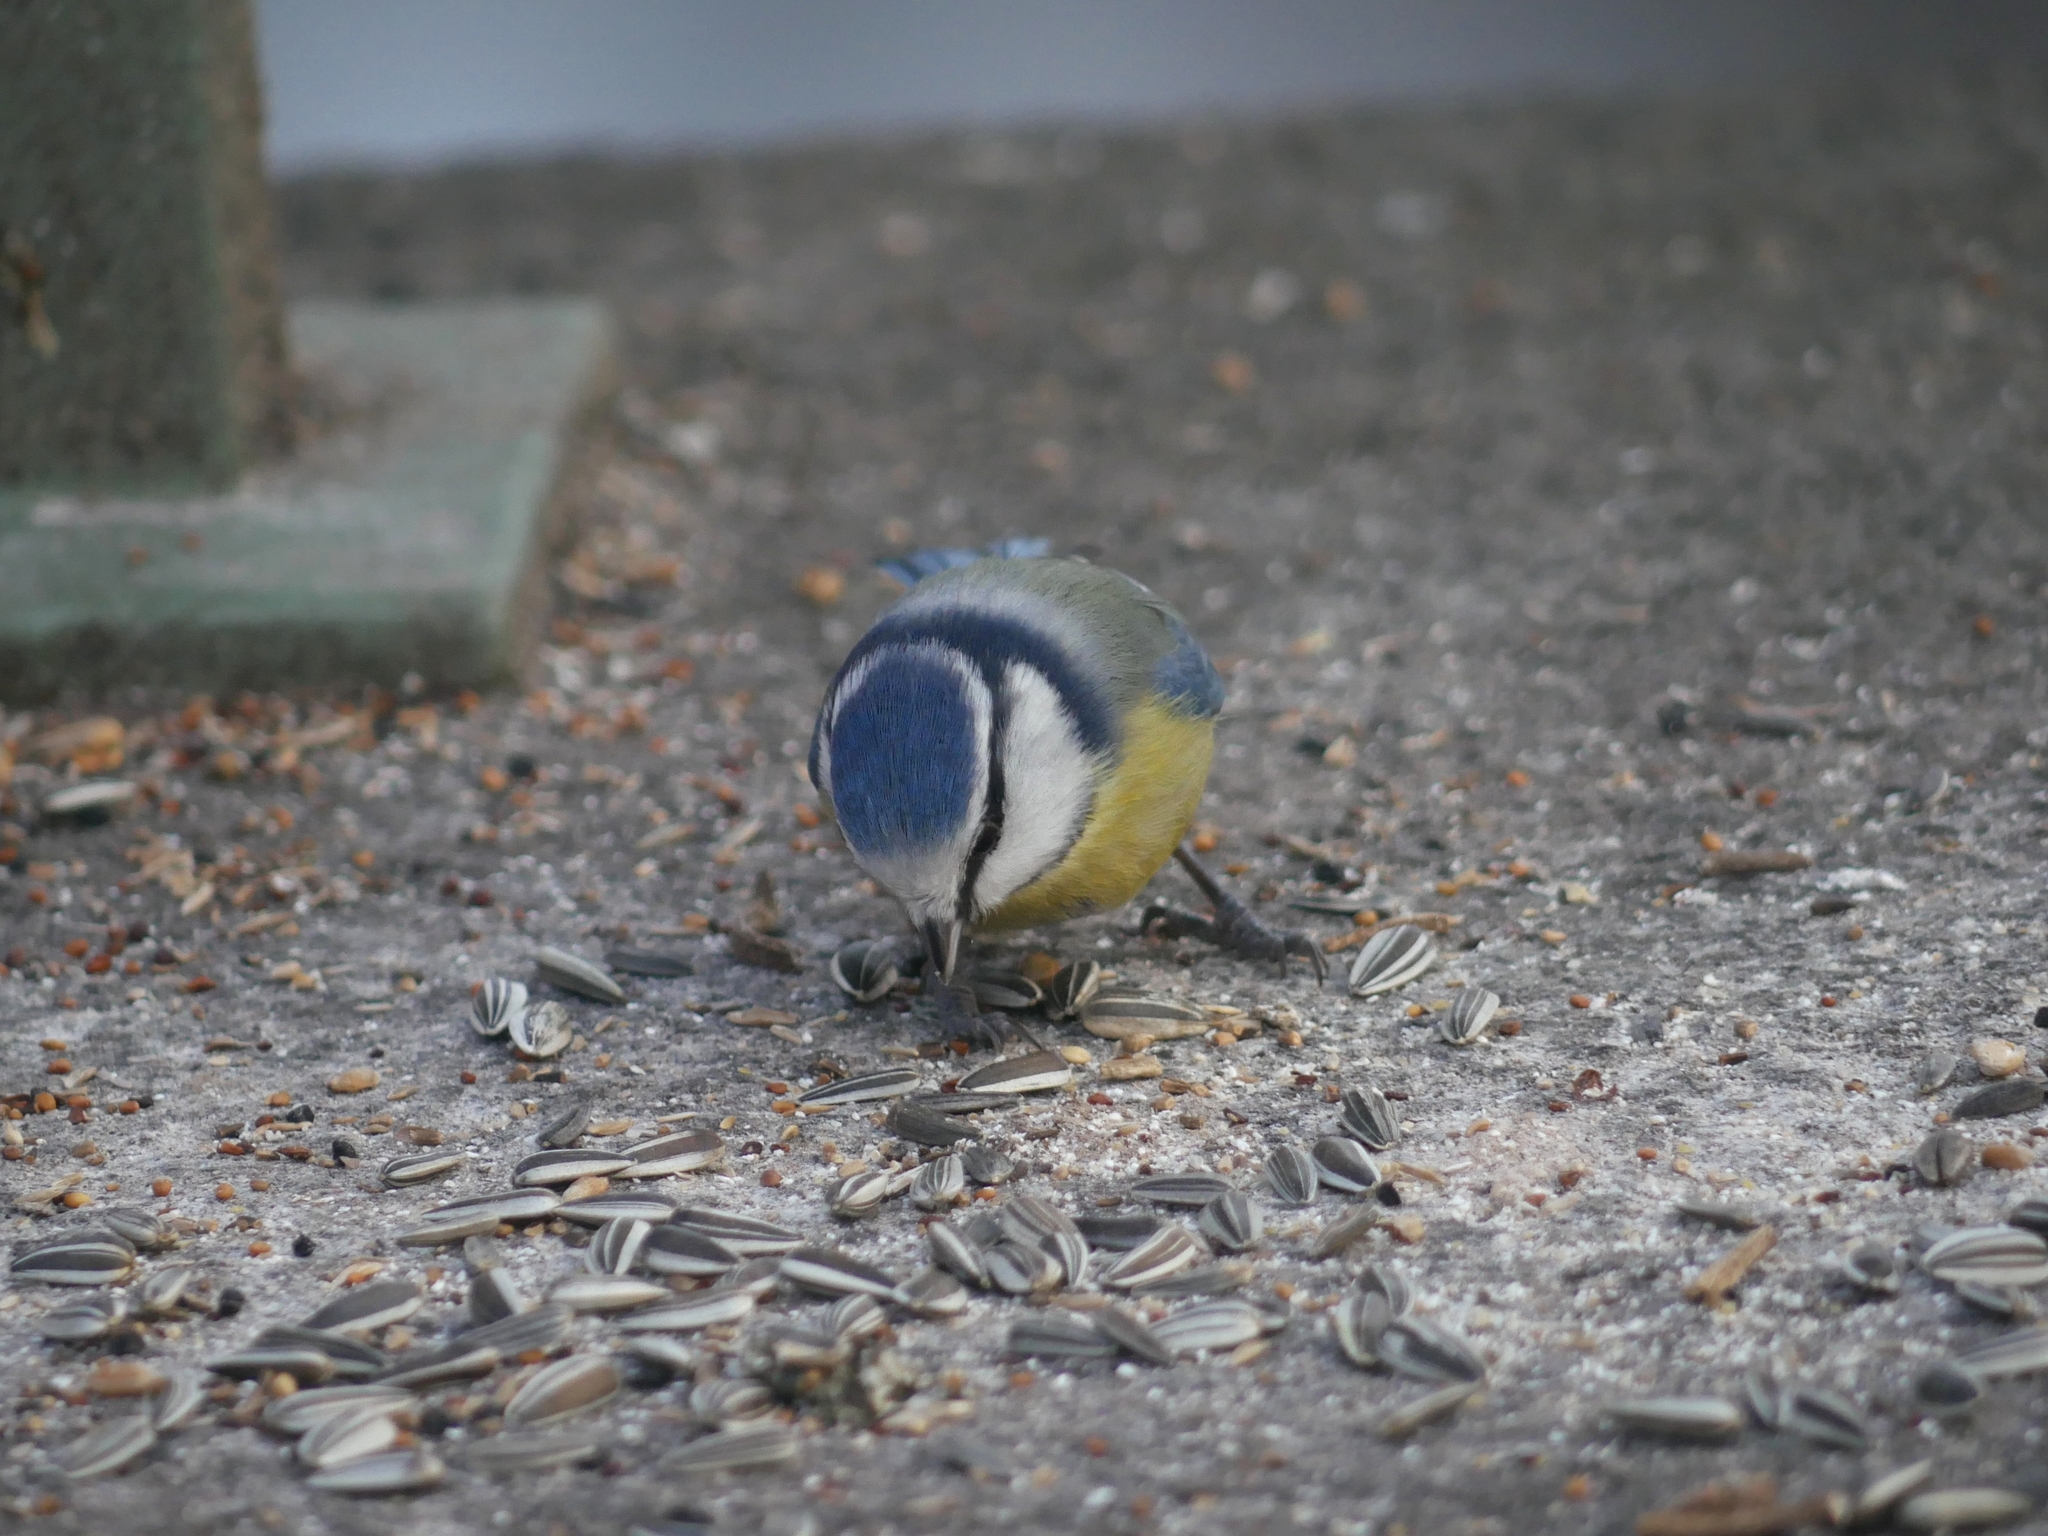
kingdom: Animalia
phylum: Chordata
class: Aves
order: Passeriformes
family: Paridae
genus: Cyanistes
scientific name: Cyanistes caeruleus
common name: Eurasian blue tit
